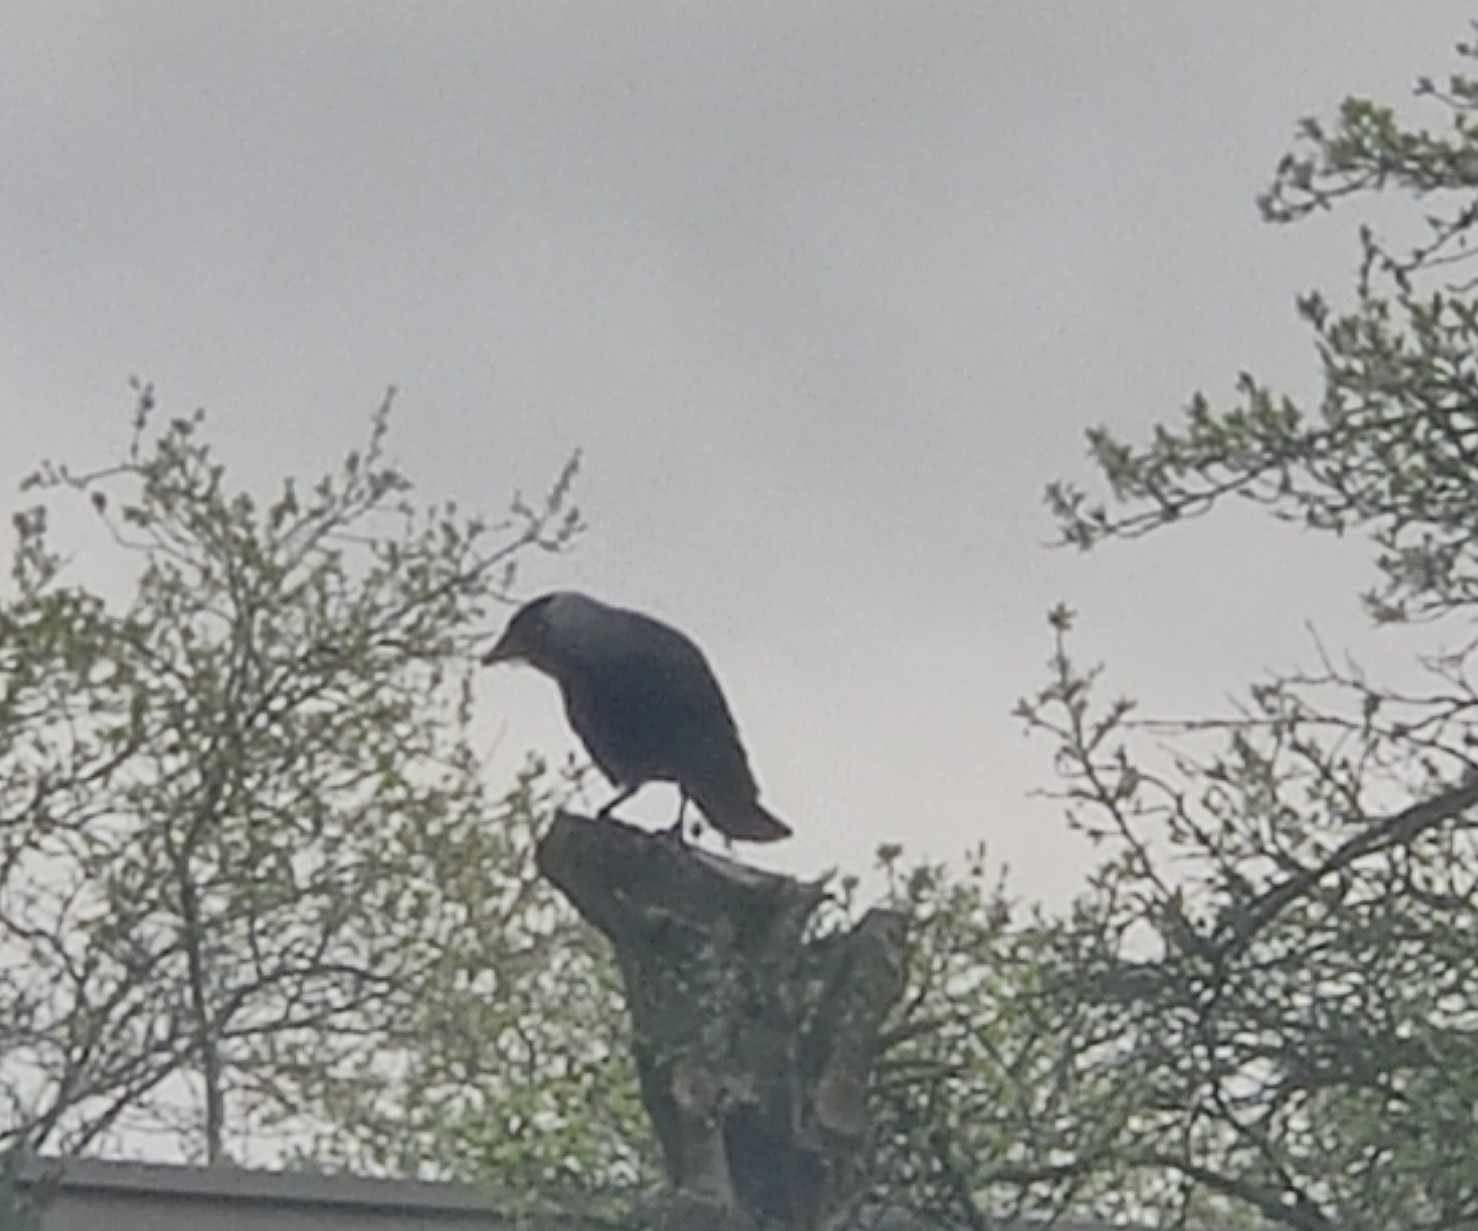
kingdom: Animalia
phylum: Chordata
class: Aves
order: Passeriformes
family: Corvidae
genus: Coloeus
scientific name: Coloeus monedula
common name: Western jackdaw
